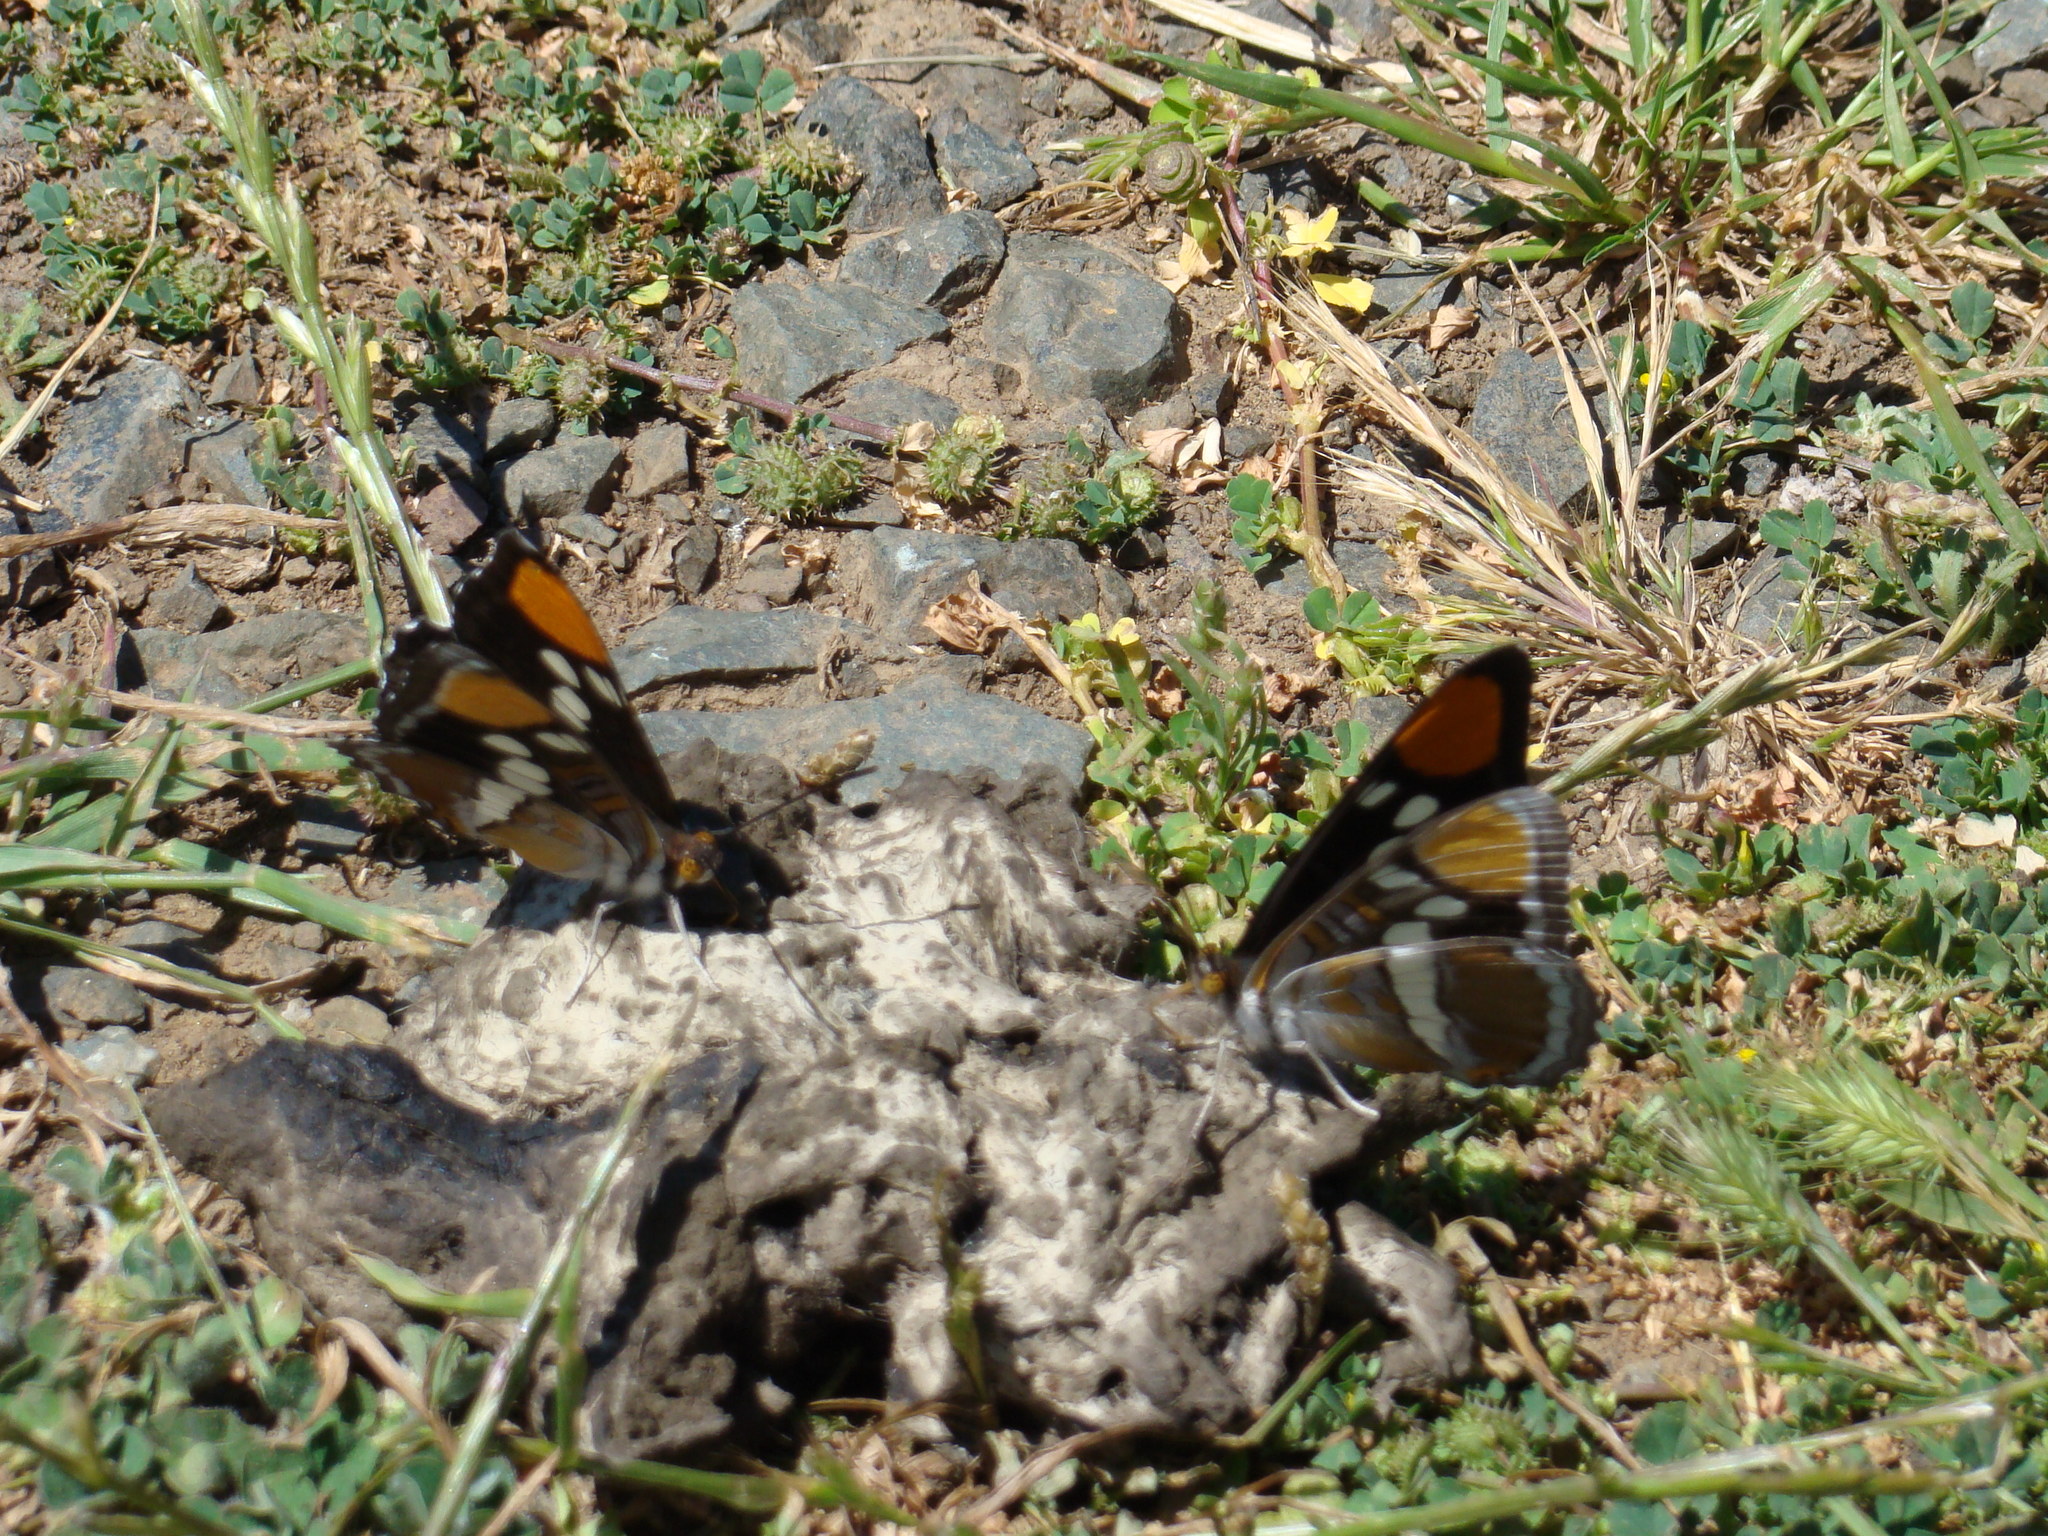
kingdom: Animalia
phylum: Arthropoda
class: Insecta
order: Lepidoptera
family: Nymphalidae
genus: Limenitis
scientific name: Limenitis bredowii
